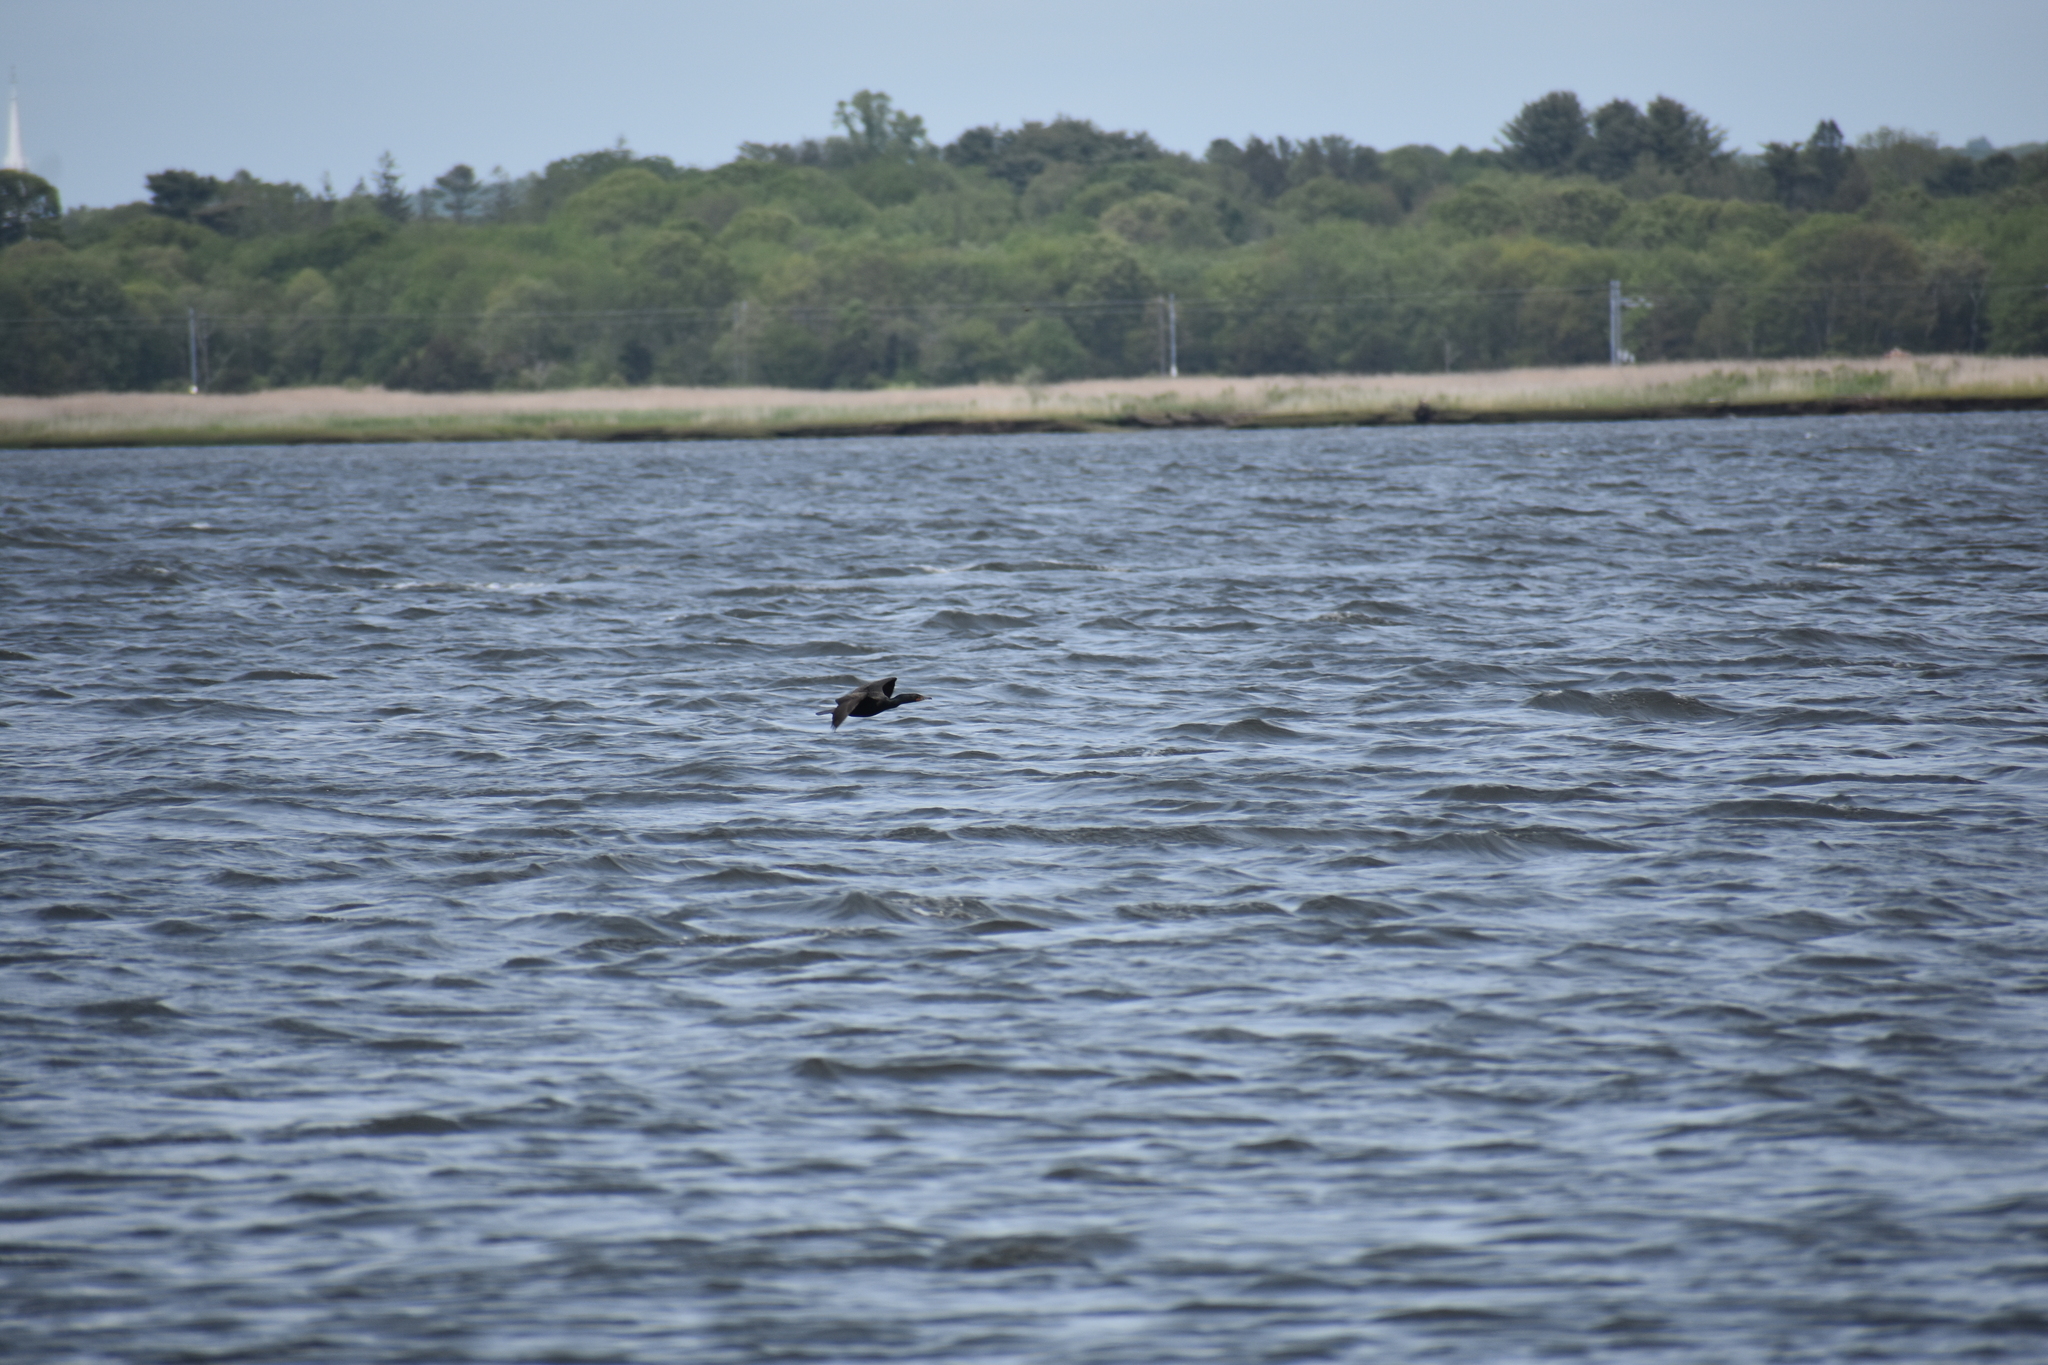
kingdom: Animalia
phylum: Chordata
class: Aves
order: Suliformes
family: Phalacrocoracidae
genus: Phalacrocorax
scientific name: Phalacrocorax auritus
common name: Double-crested cormorant
